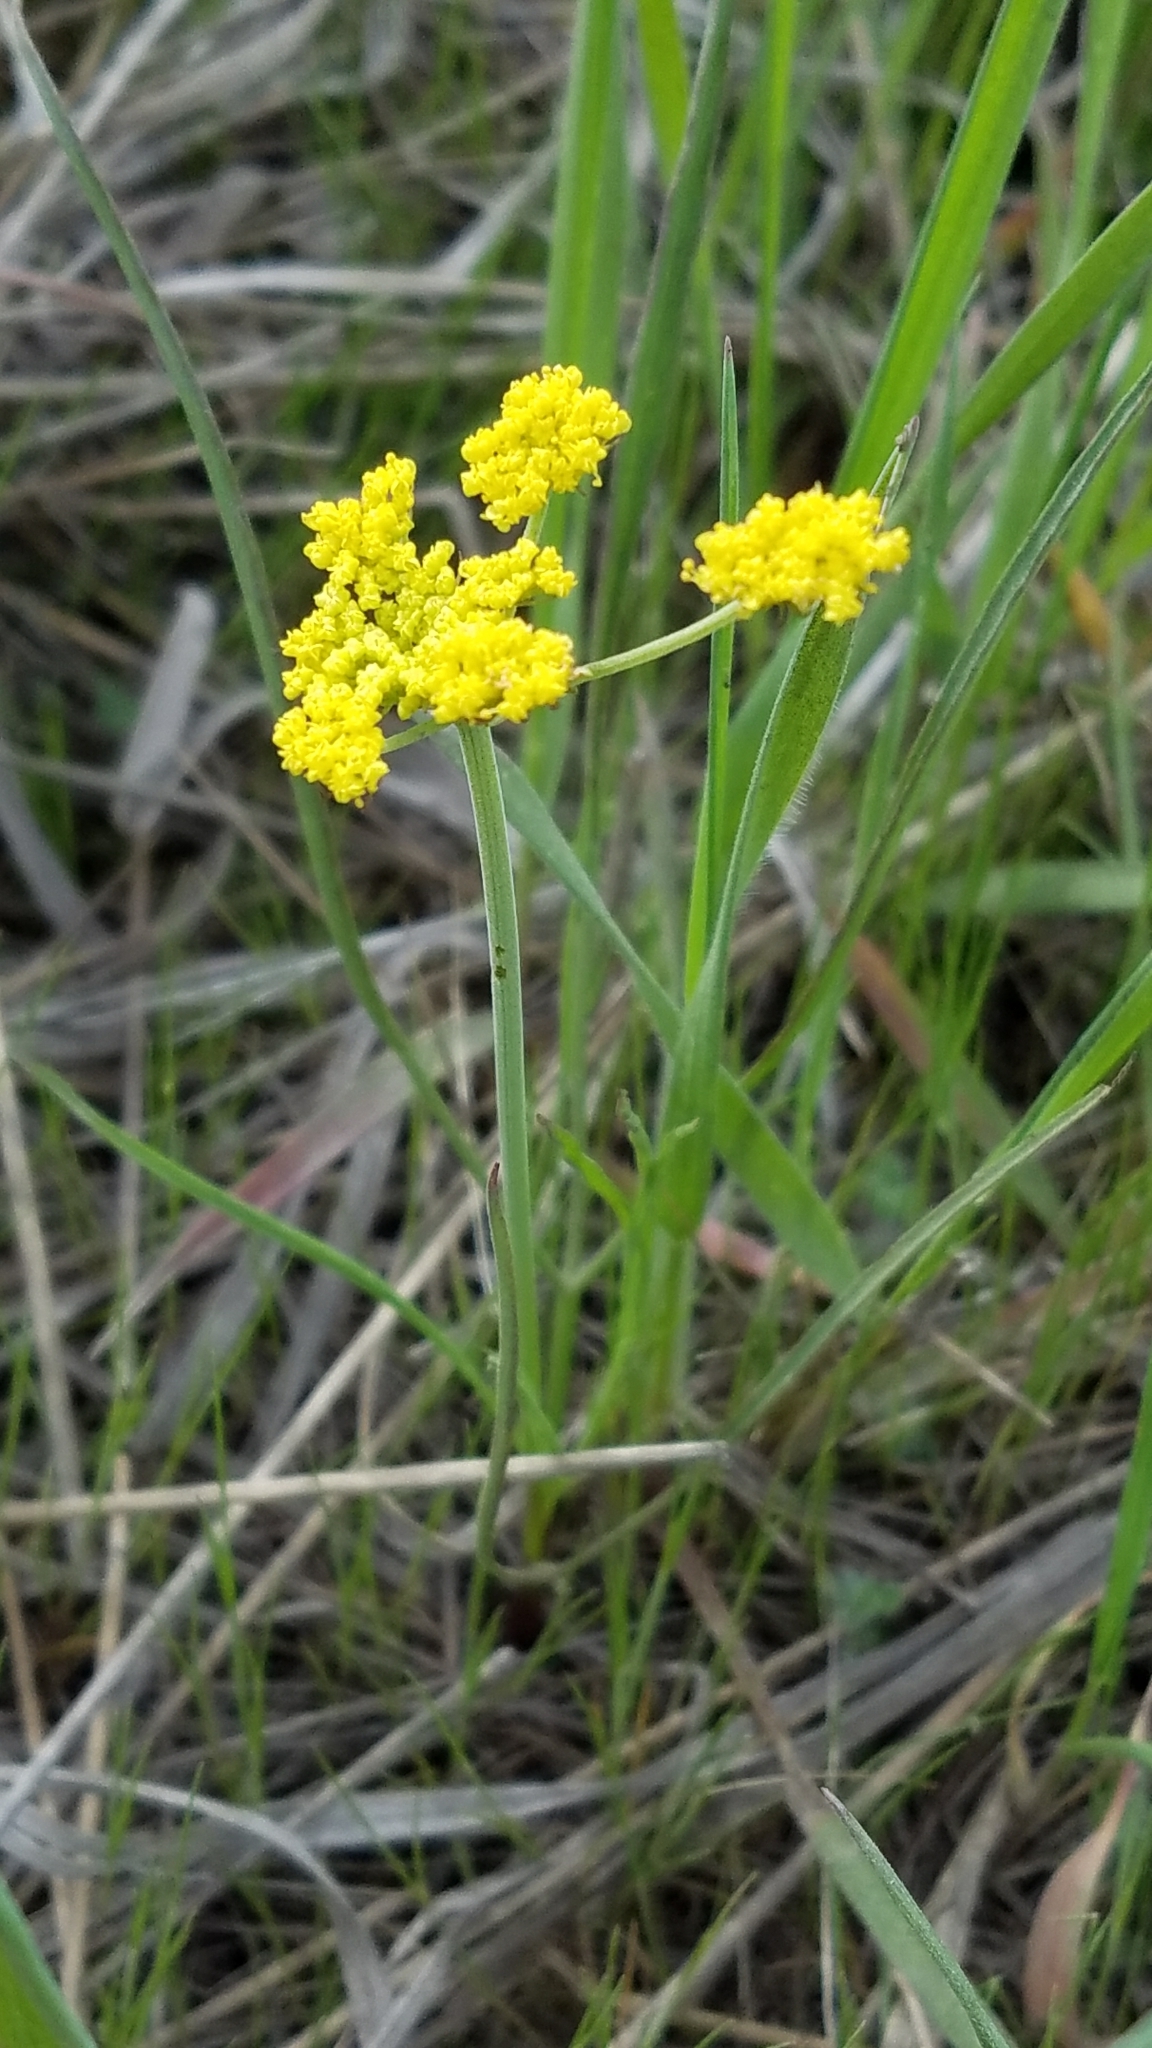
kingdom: Plantae
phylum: Tracheophyta
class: Magnoliopsida
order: Apiales
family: Apiaceae
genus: Lomatium
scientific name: Lomatium triternatum
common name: Ternate lomatium
